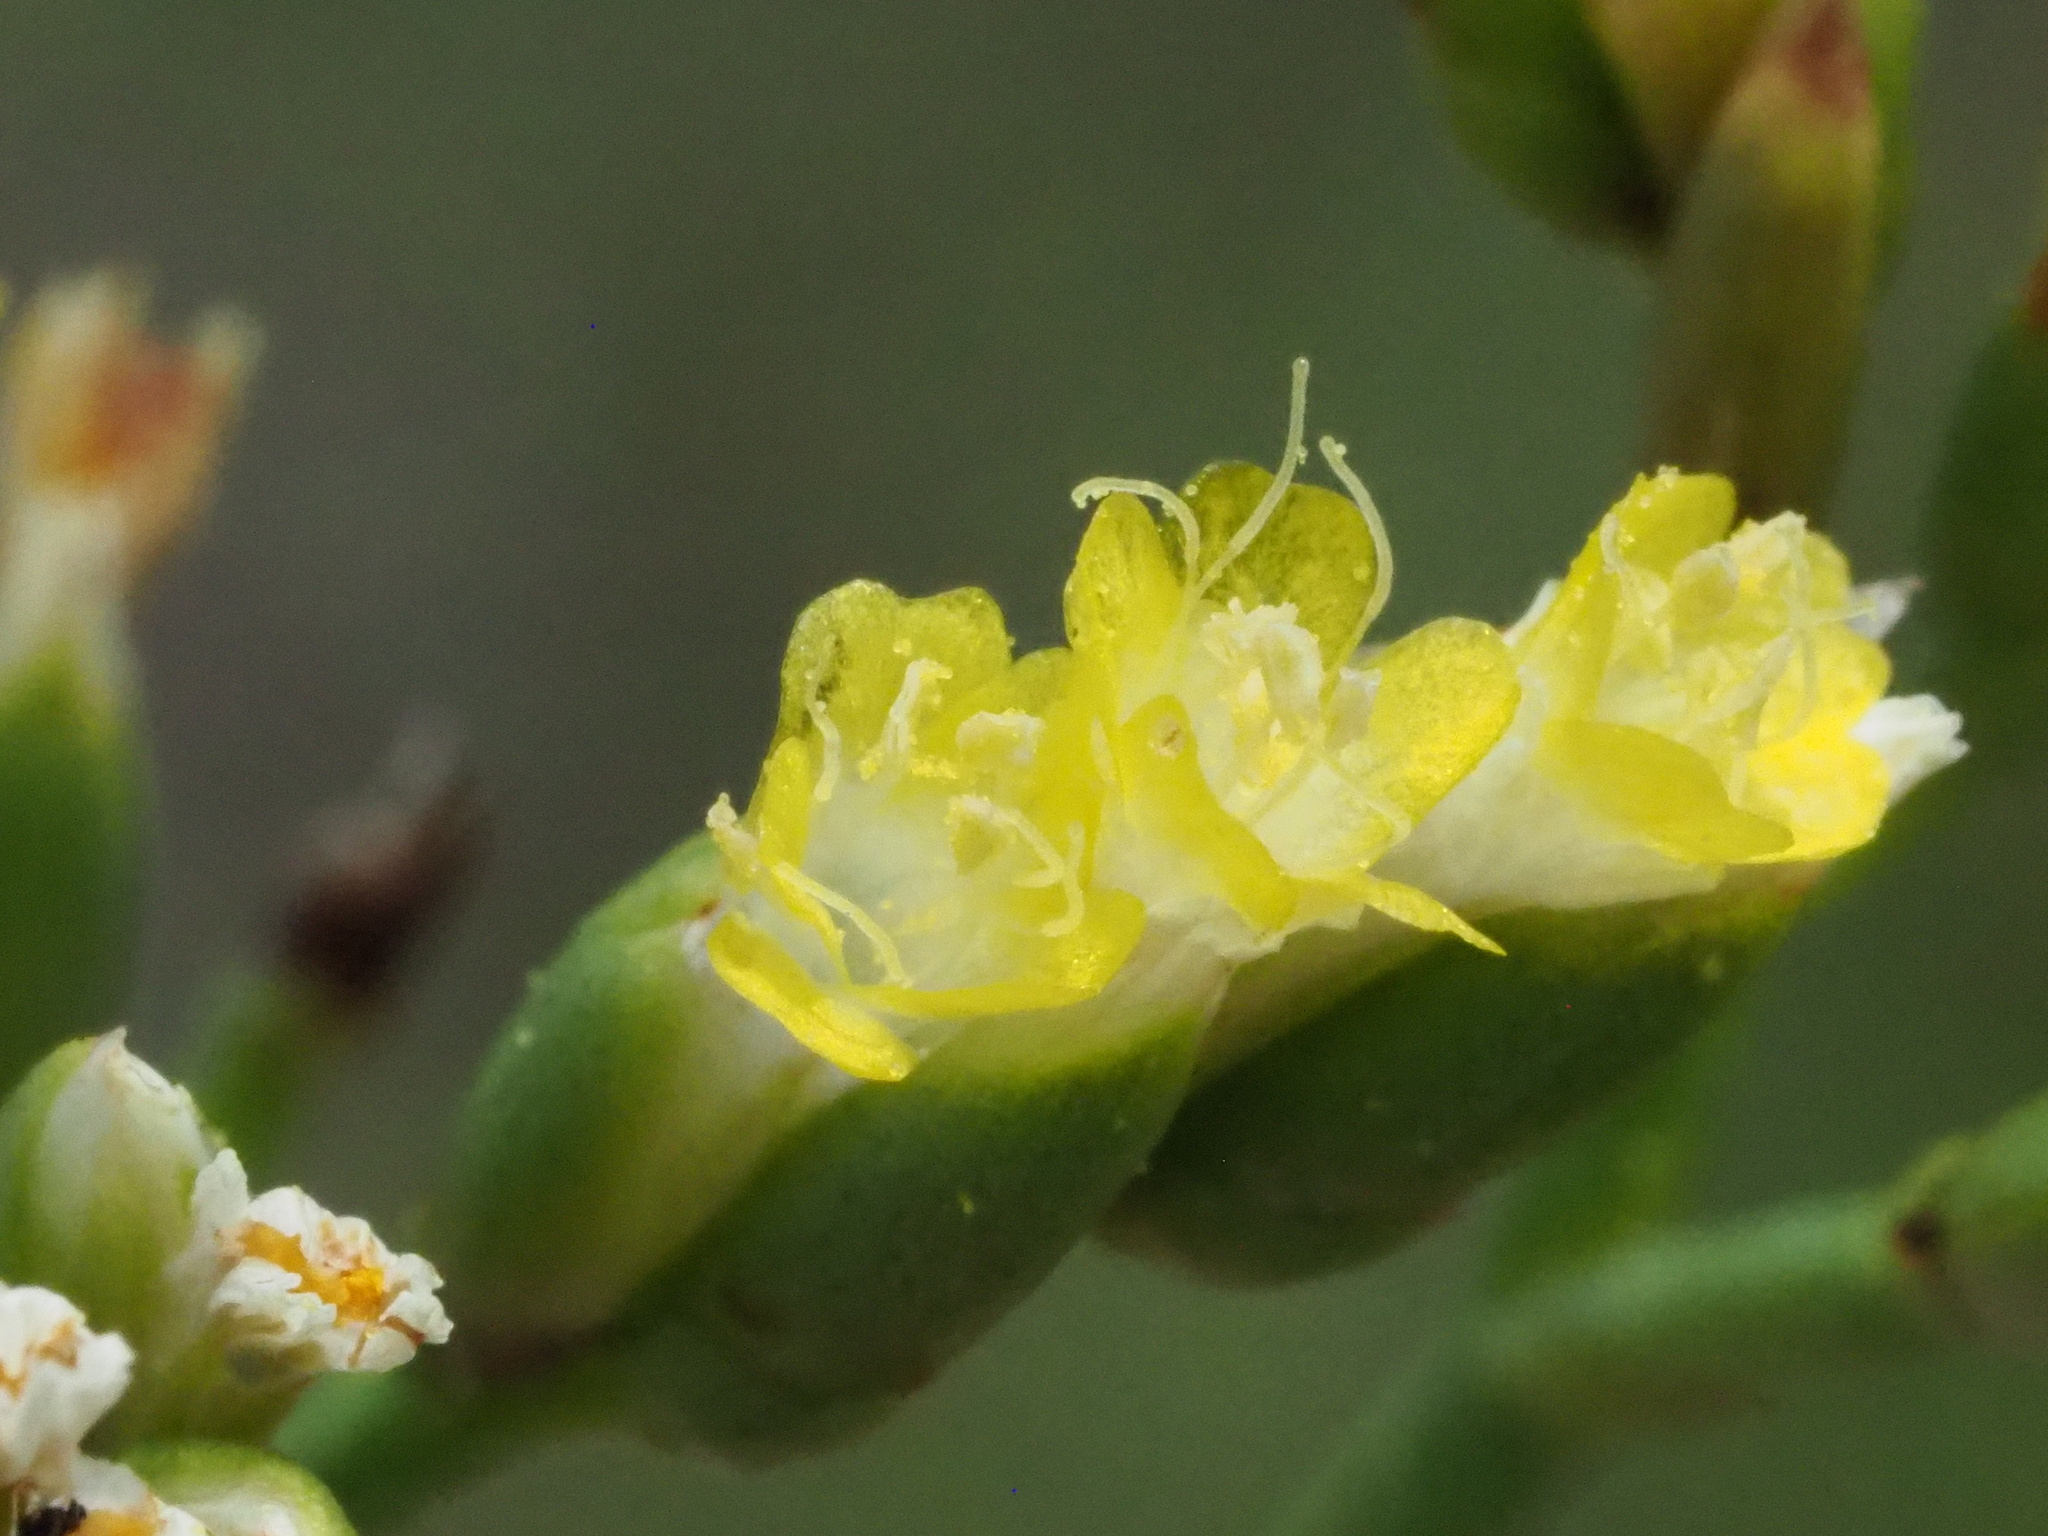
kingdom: Plantae
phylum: Tracheophyta
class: Magnoliopsida
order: Caryophyllales
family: Plumbaginaceae
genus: Limonium
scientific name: Limonium sinense
